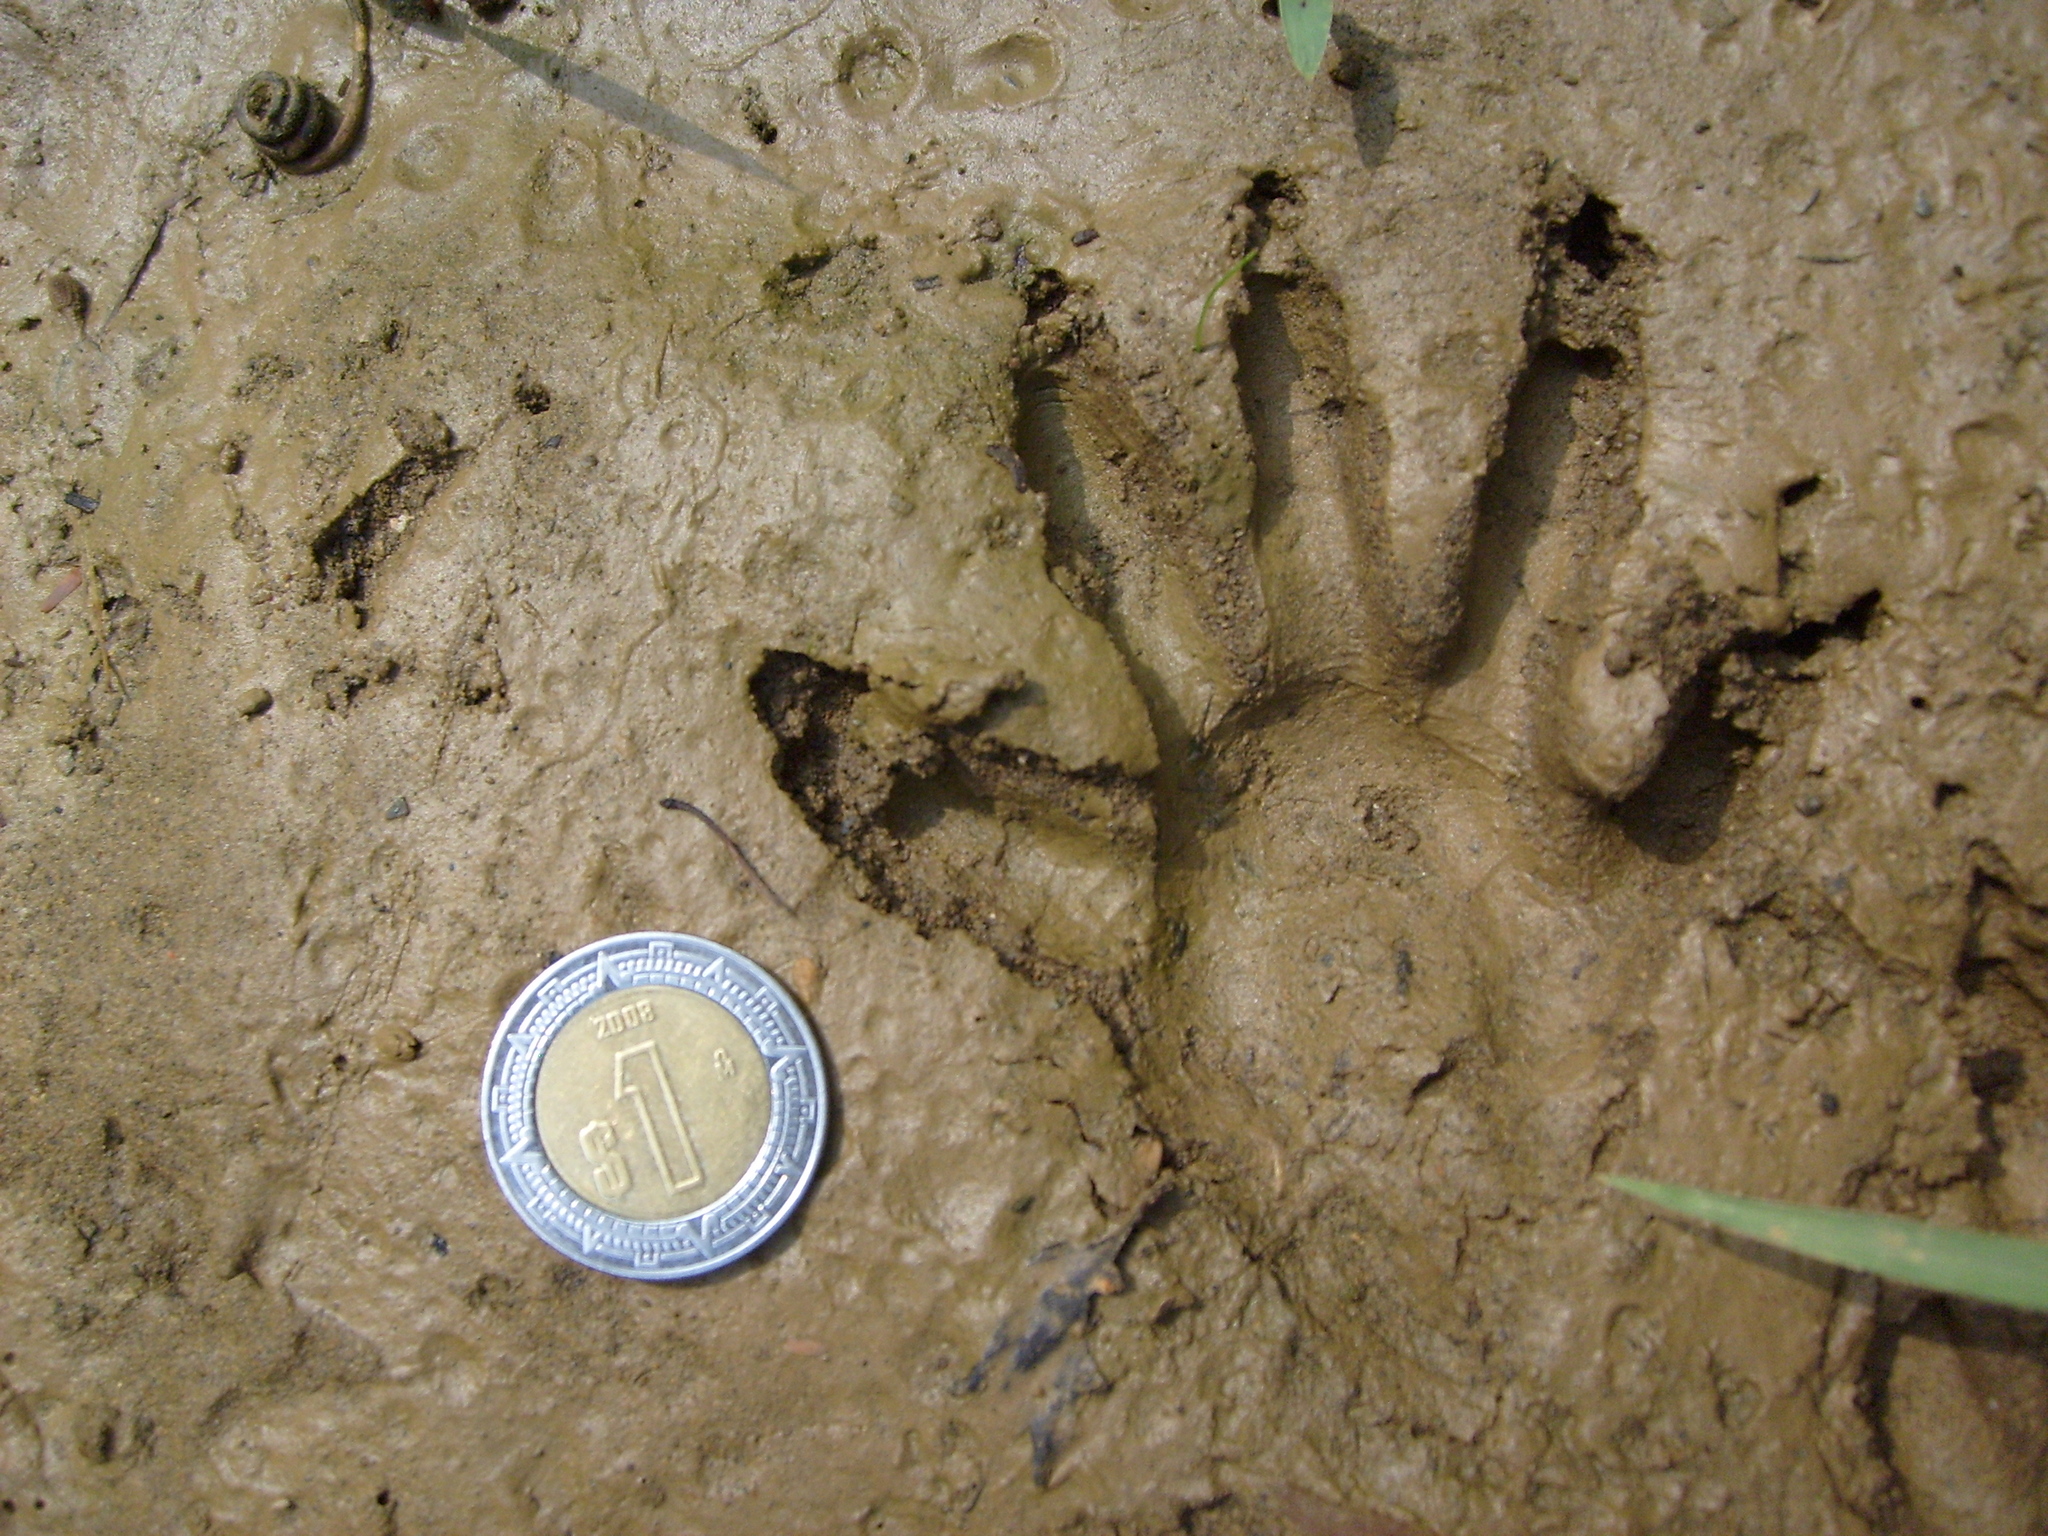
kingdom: Animalia
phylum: Chordata
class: Mammalia
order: Carnivora
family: Procyonidae
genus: Procyon
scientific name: Procyon lotor
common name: Raccoon
